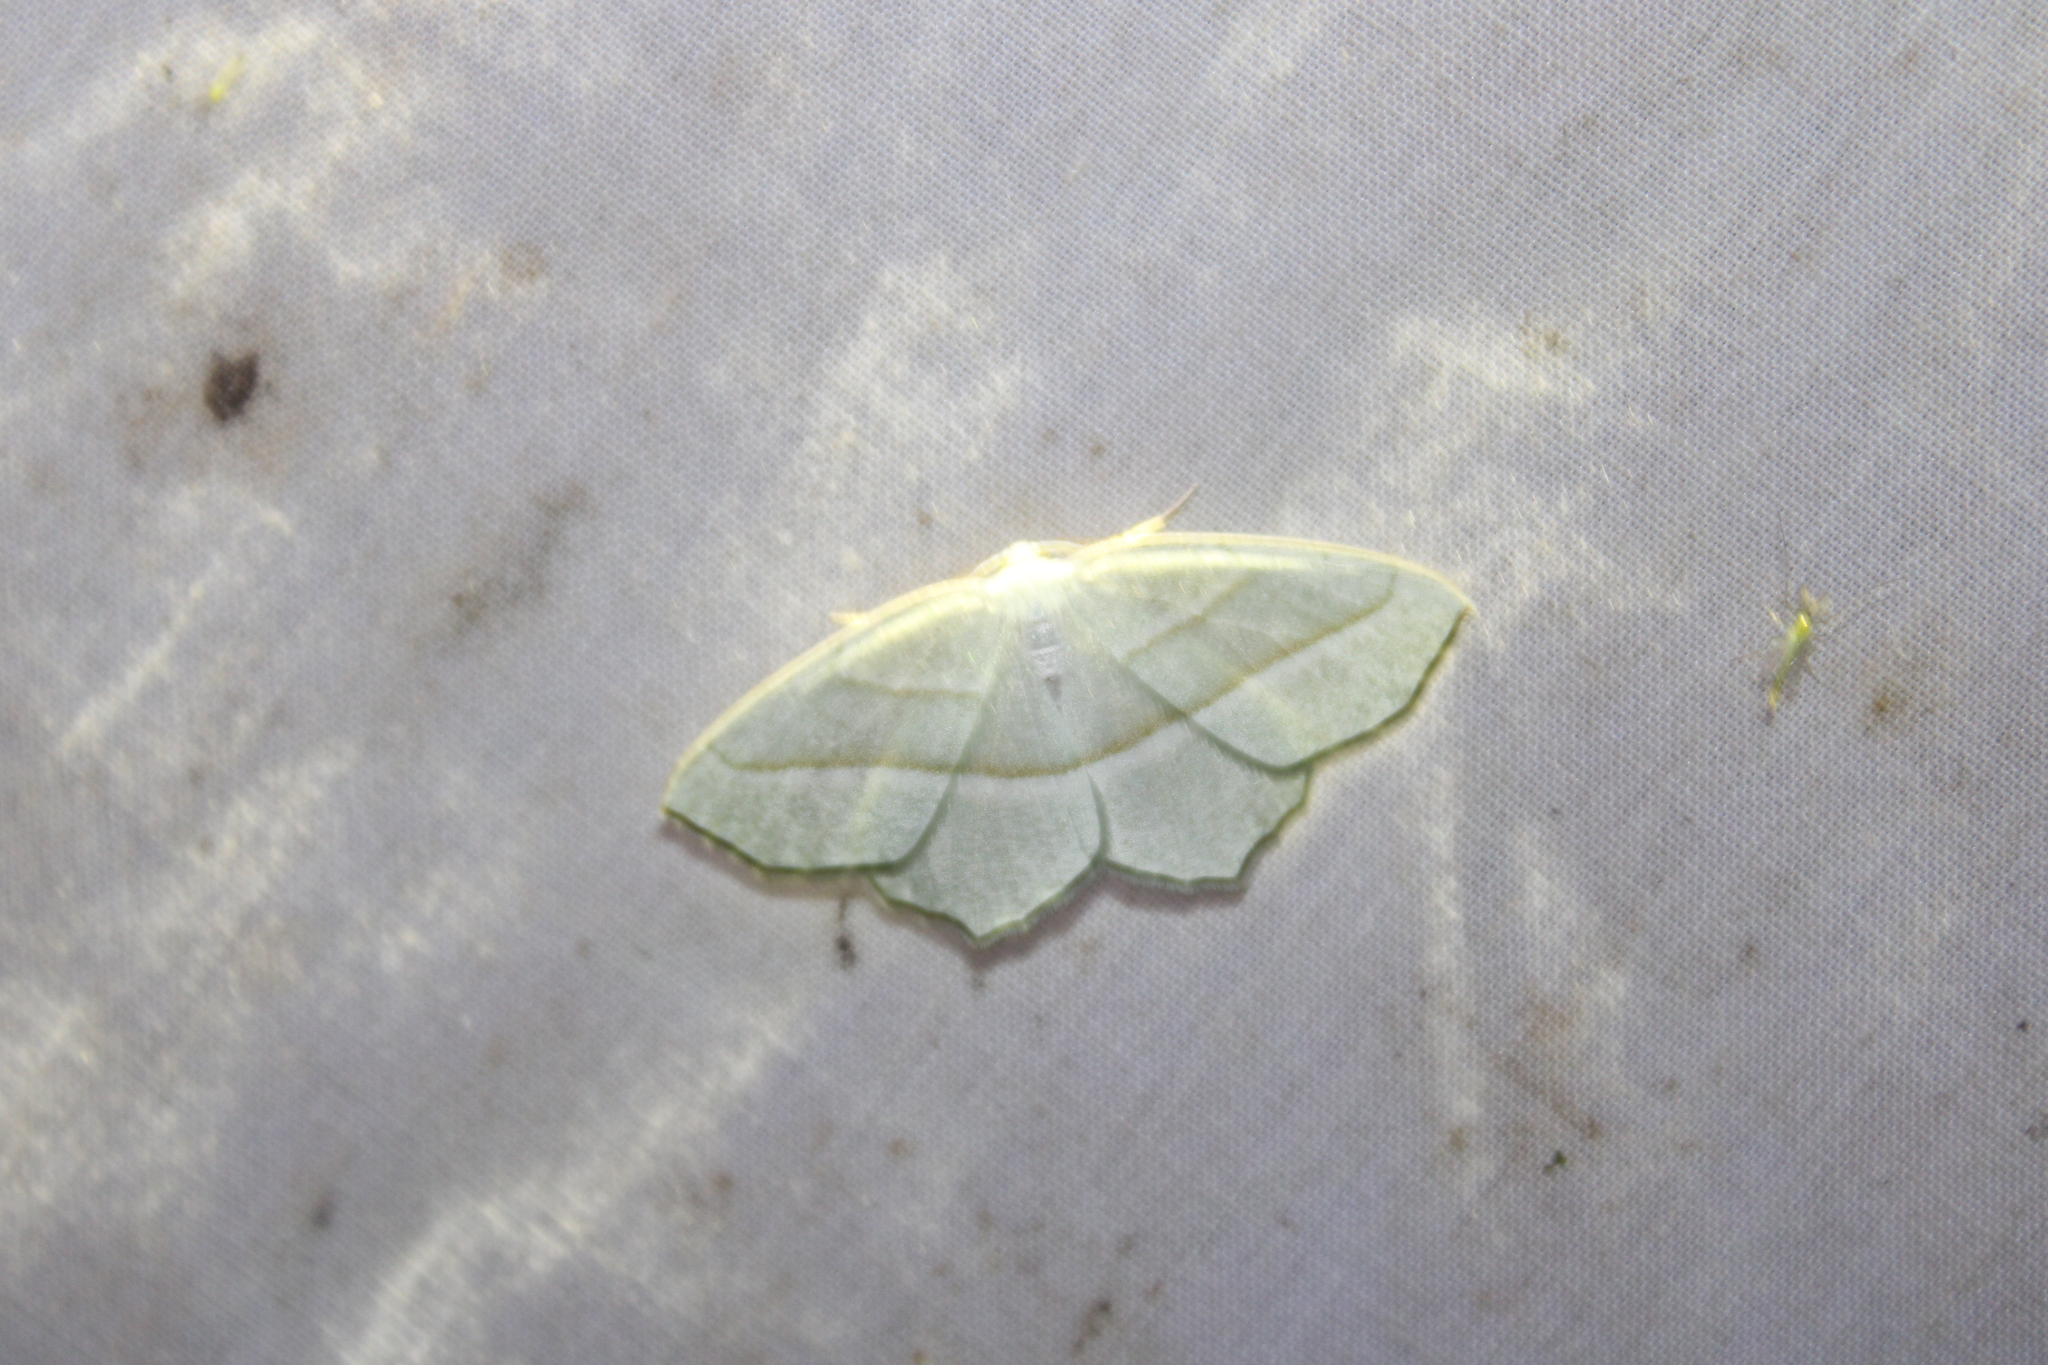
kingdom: Animalia
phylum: Arthropoda
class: Insecta
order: Lepidoptera
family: Geometridae
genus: Campaea
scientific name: Campaea perlata
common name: Fringed looper
